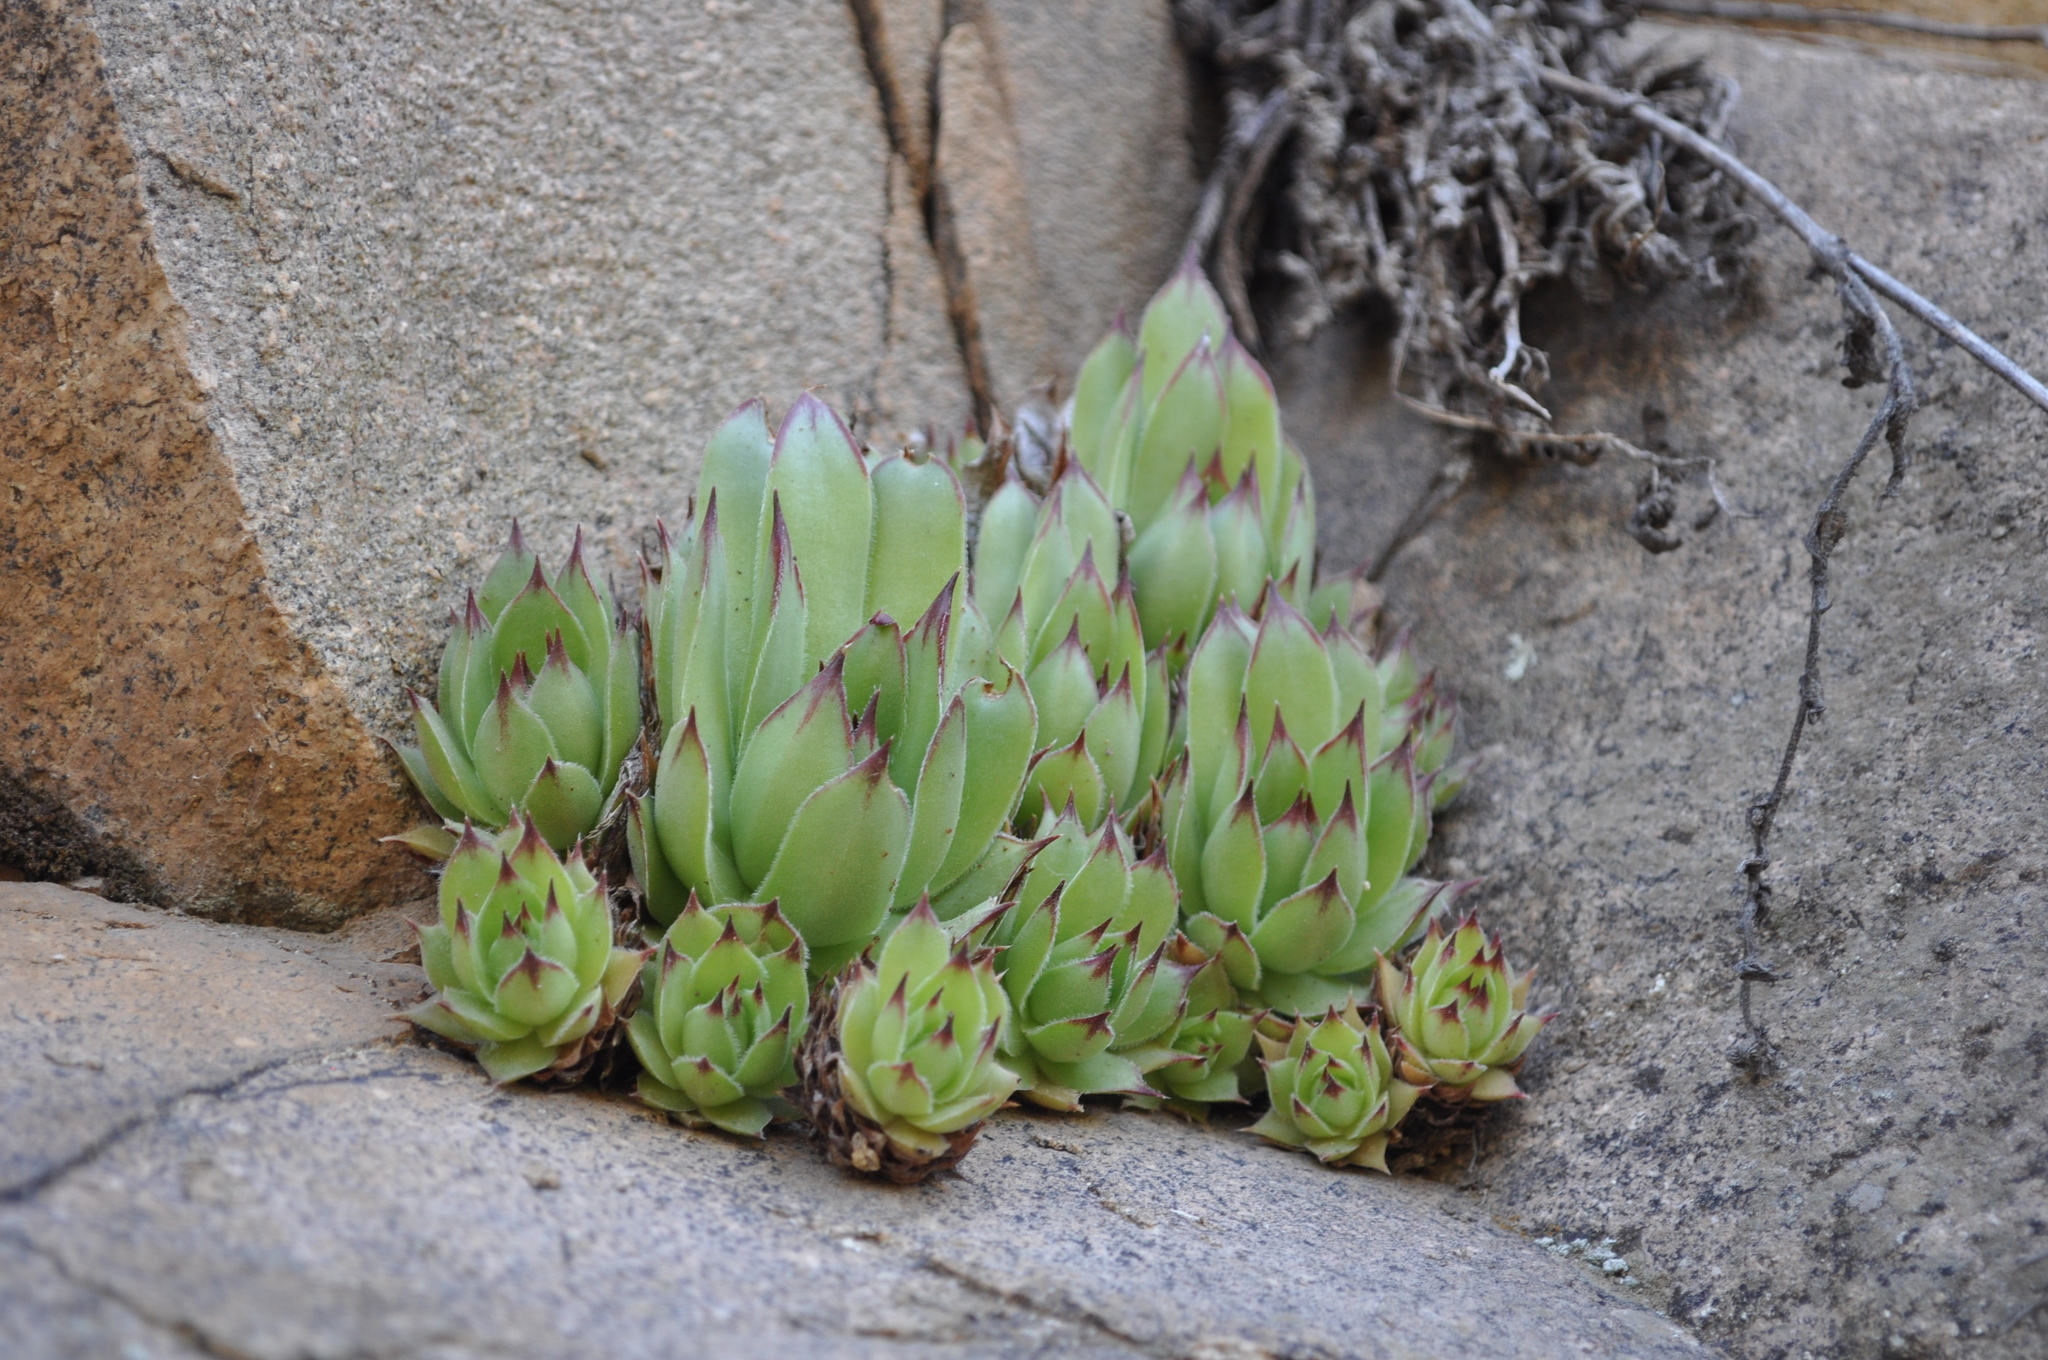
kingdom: Plantae
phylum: Tracheophyta
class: Magnoliopsida
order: Saxifragales
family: Crassulaceae
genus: Sempervivum
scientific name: Sempervivum tectorum
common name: House-leek
